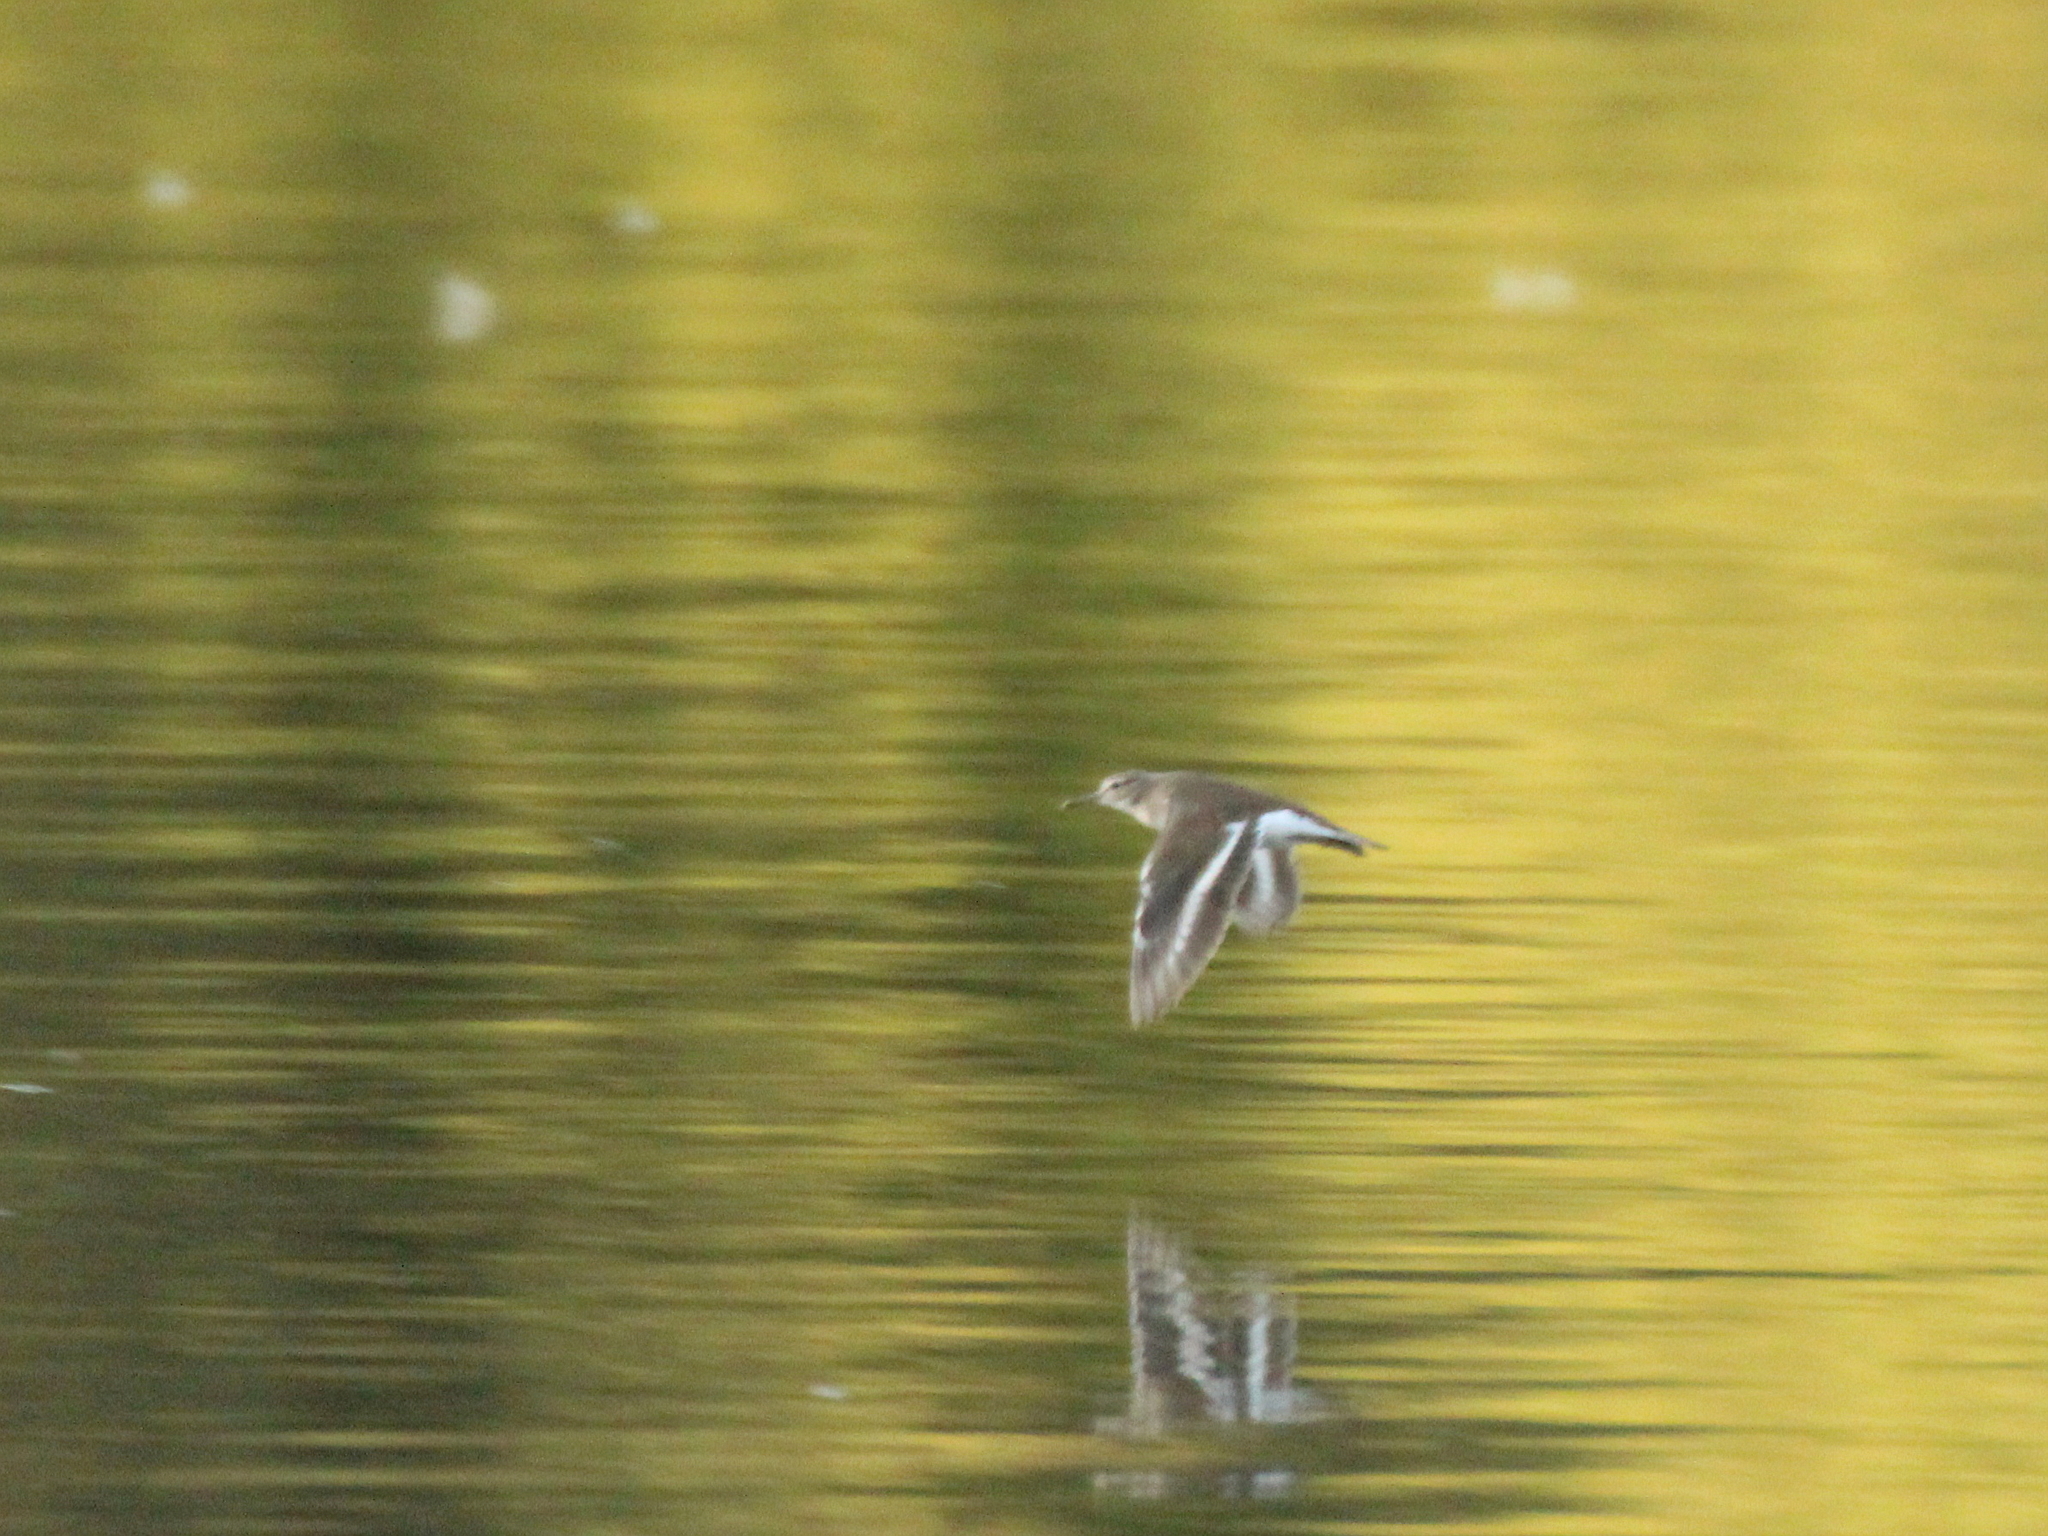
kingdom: Animalia
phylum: Chordata
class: Aves
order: Charadriiformes
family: Scolopacidae
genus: Actitis
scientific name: Actitis hypoleucos
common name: Common sandpiper
